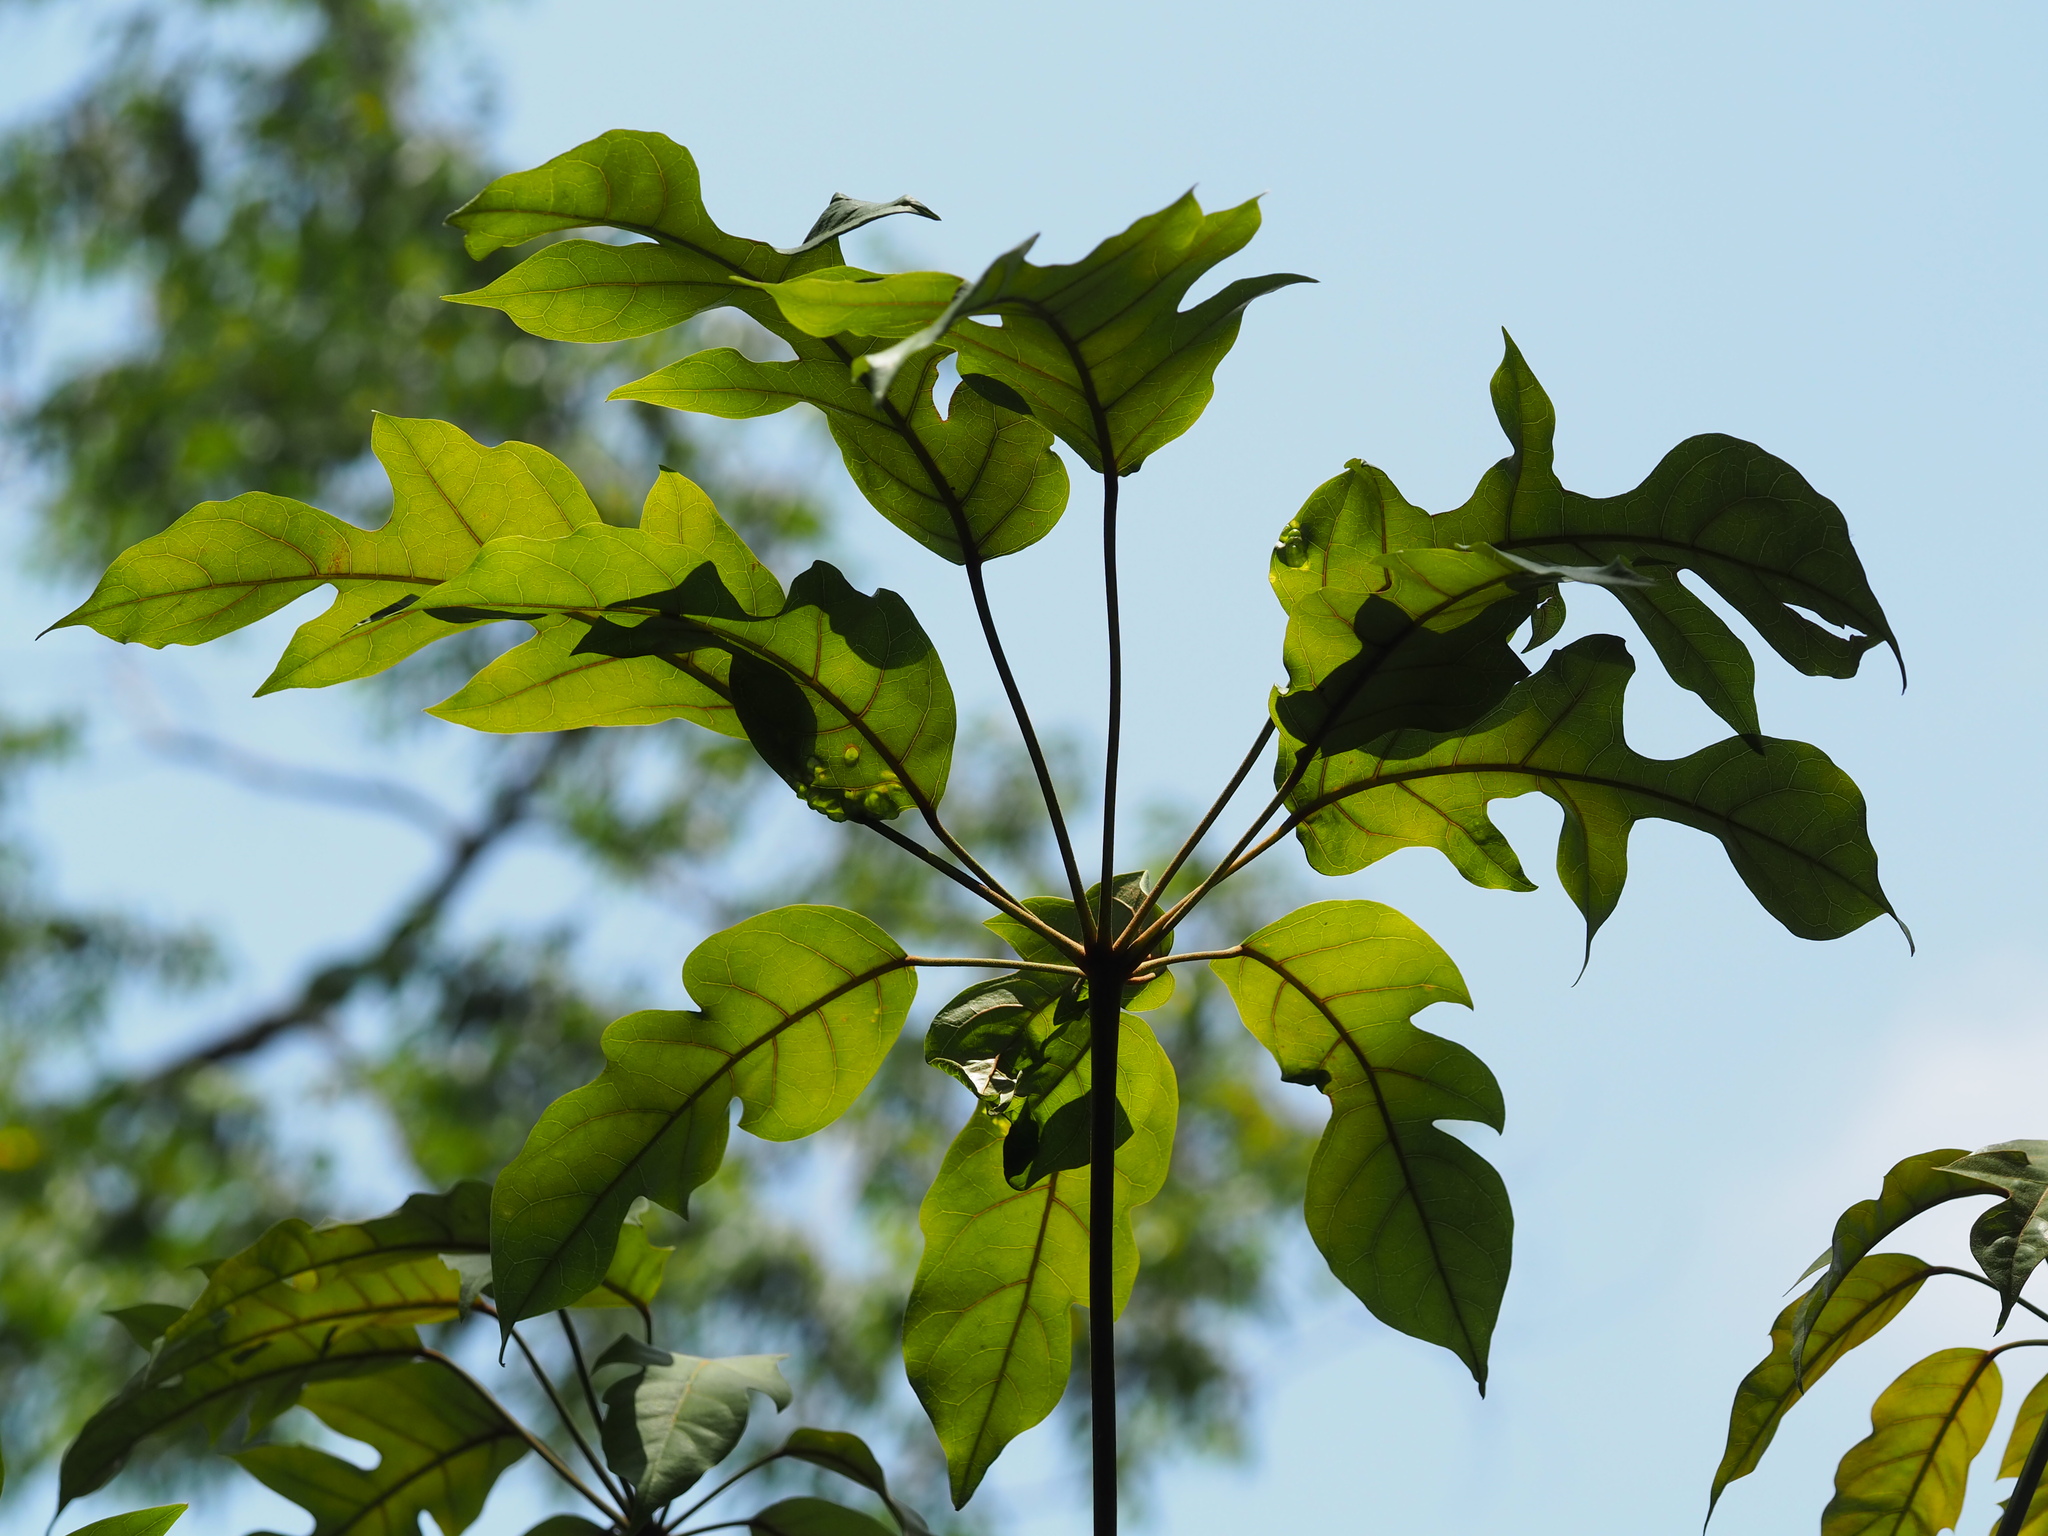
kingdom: Plantae
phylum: Tracheophyta
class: Magnoliopsida
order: Apiales
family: Araliaceae
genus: Heptapleurum
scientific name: Heptapleurum heptaphyllum
